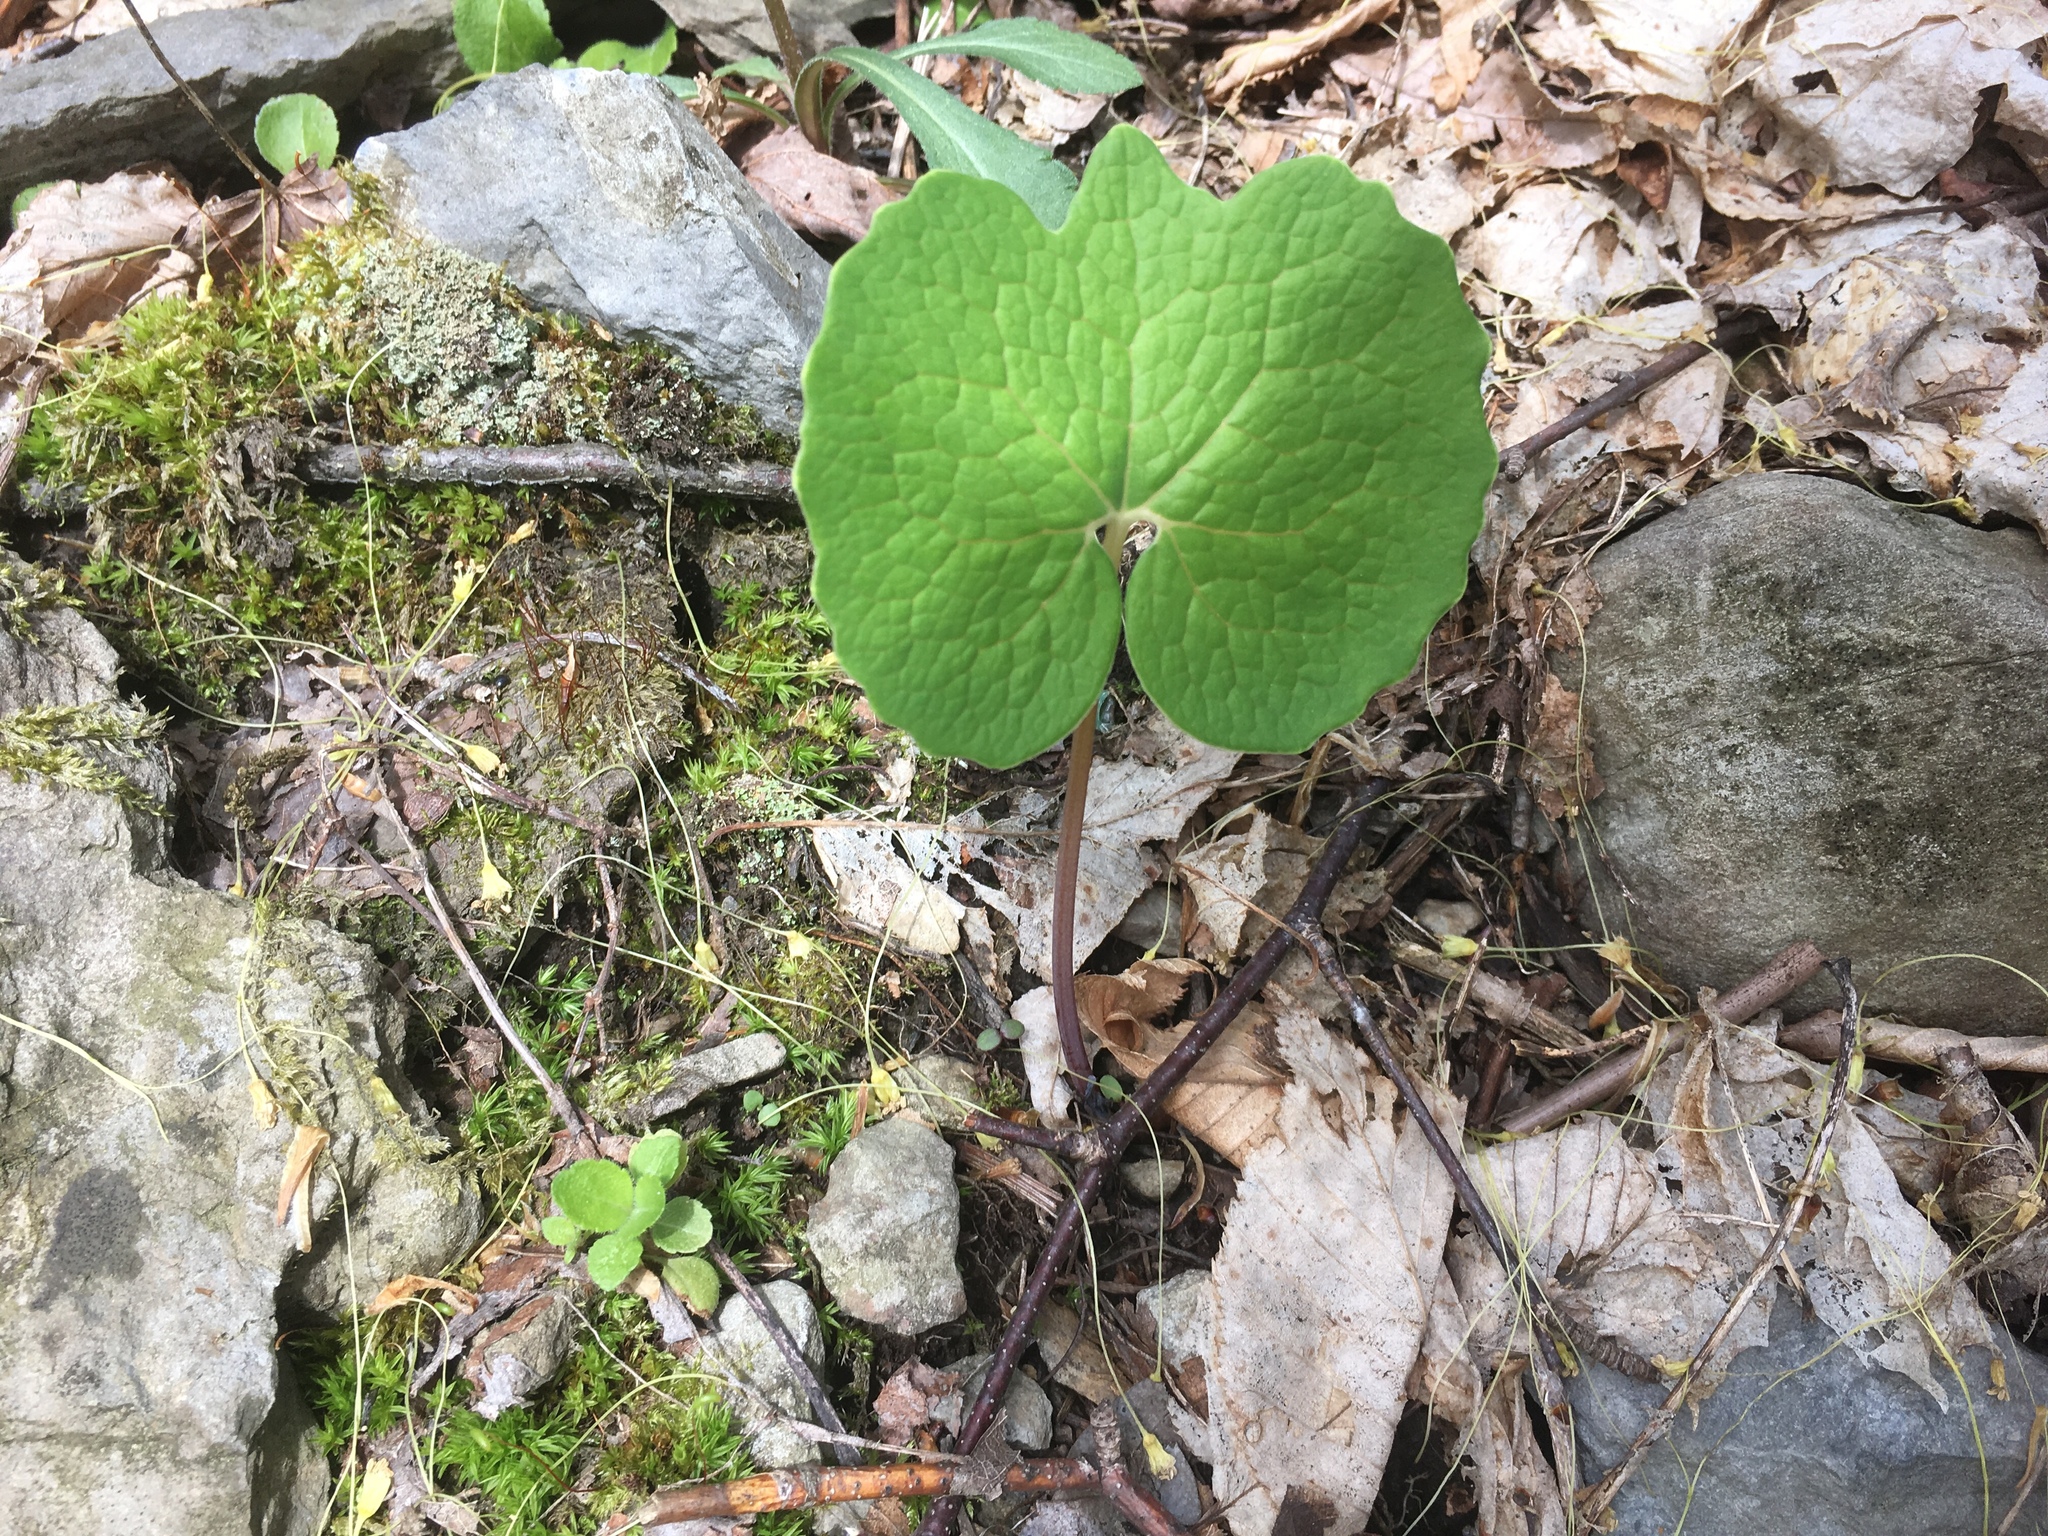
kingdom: Plantae
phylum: Tracheophyta
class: Magnoliopsida
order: Ranunculales
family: Papaveraceae
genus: Sanguinaria
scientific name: Sanguinaria canadensis
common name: Bloodroot
